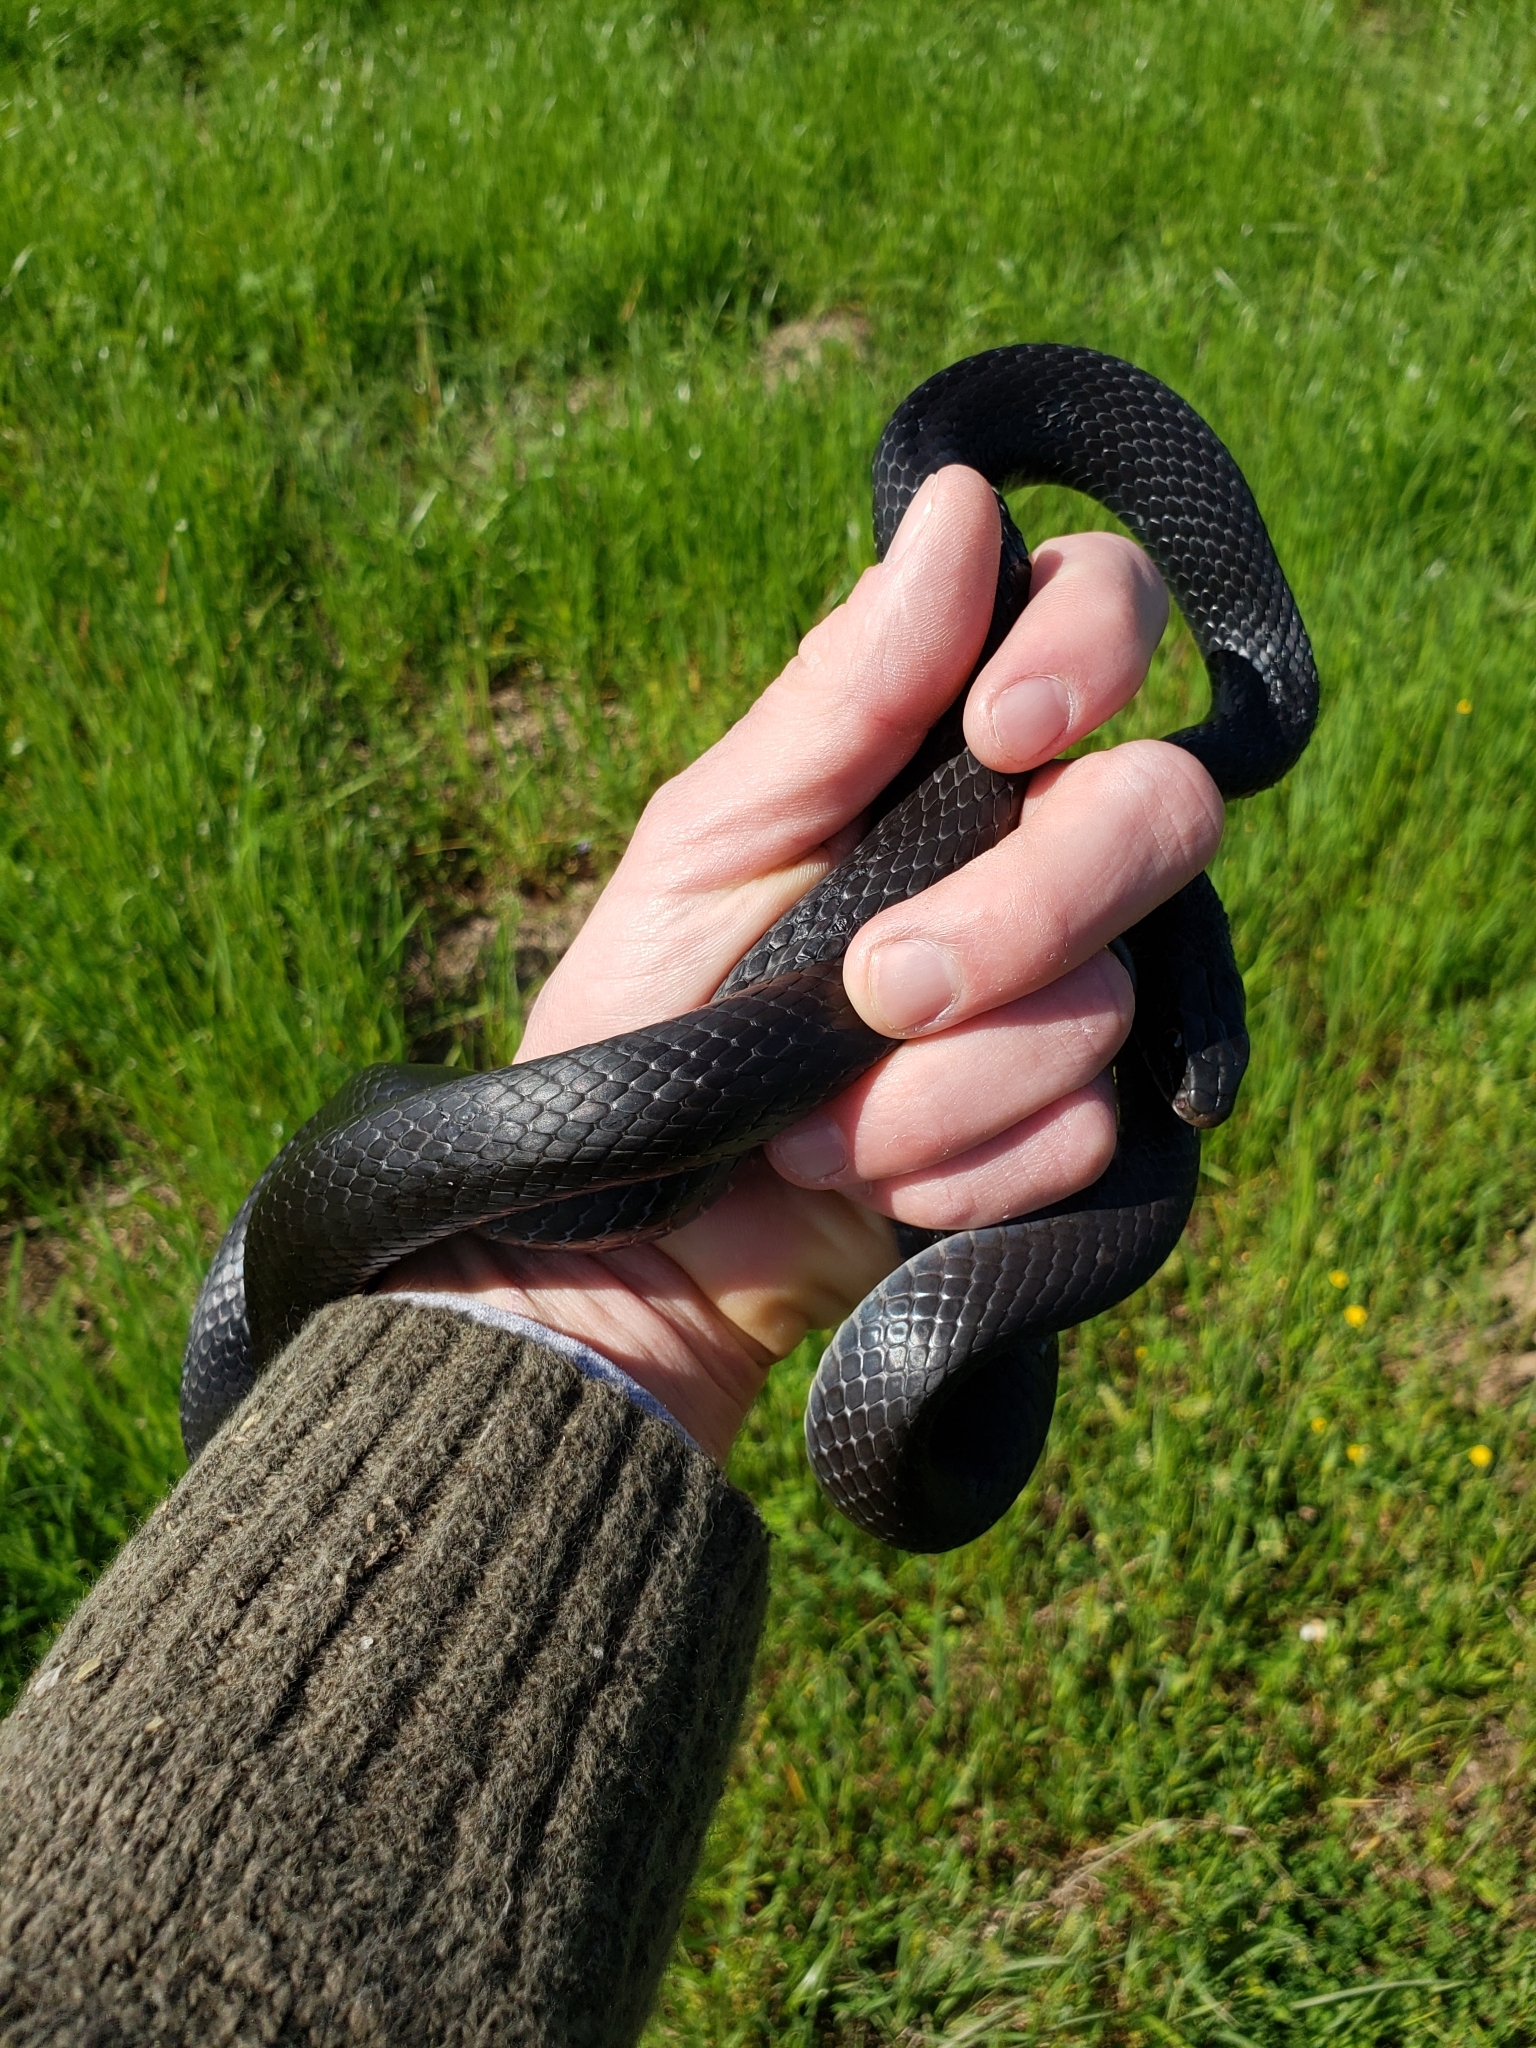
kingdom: Animalia
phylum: Chordata
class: Squamata
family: Colubridae
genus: Coluber
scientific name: Coluber constrictor
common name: Eastern racer
